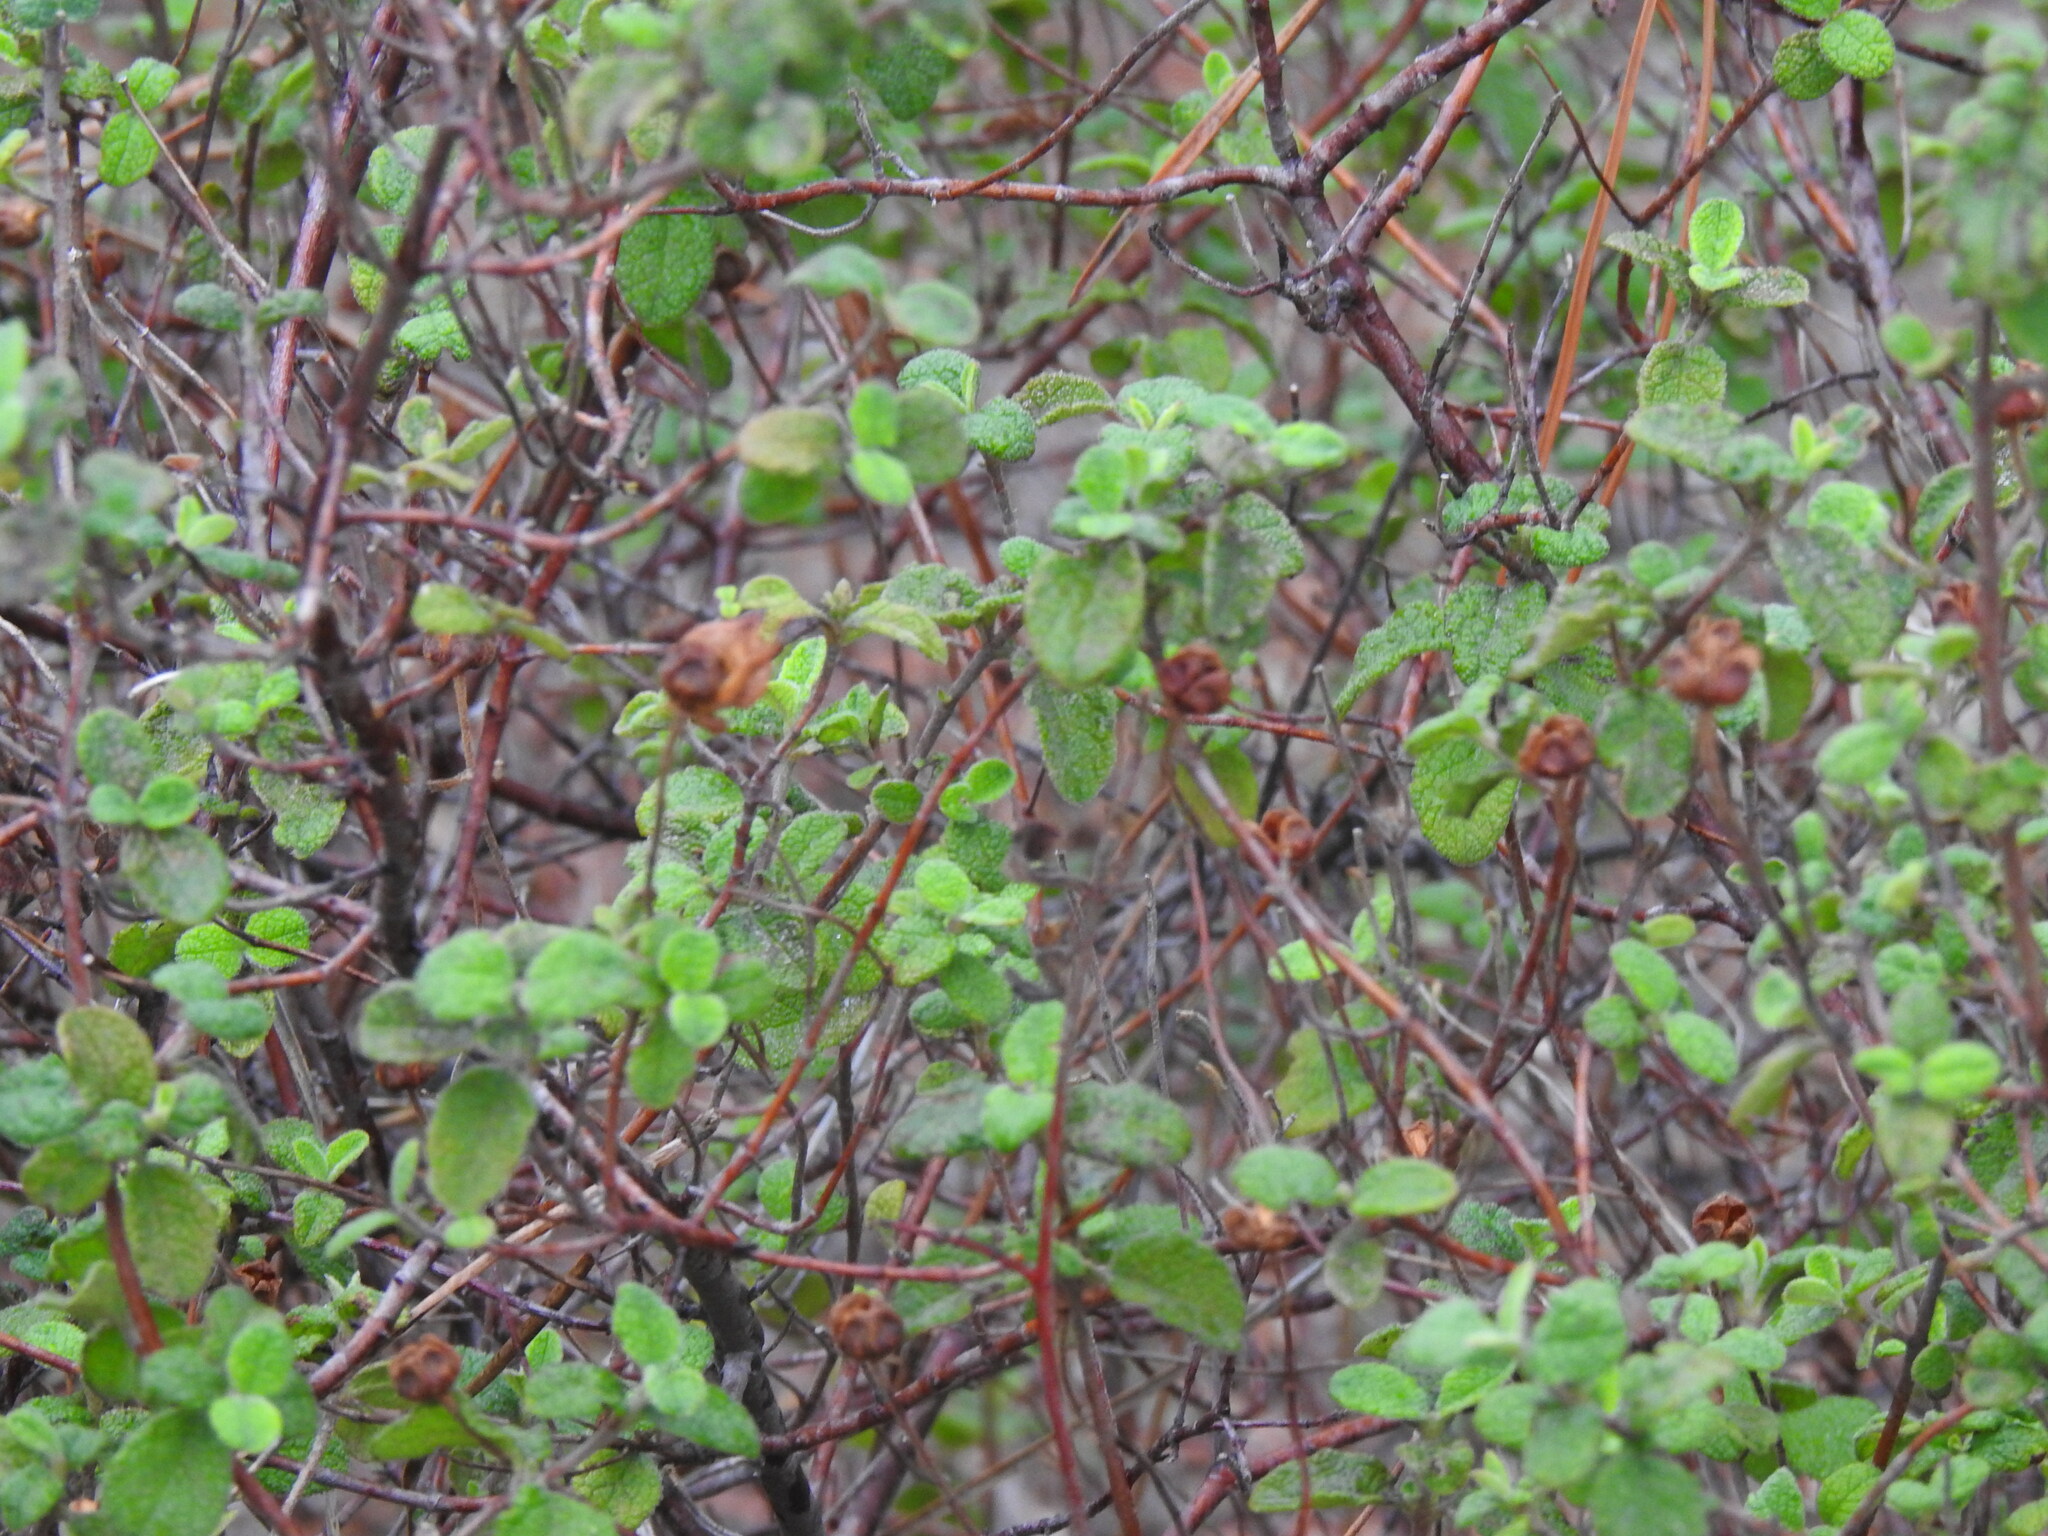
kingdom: Plantae
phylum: Tracheophyta
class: Magnoliopsida
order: Malvales
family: Cistaceae
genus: Cistus
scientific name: Cistus salviifolius
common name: Salvia cistus
